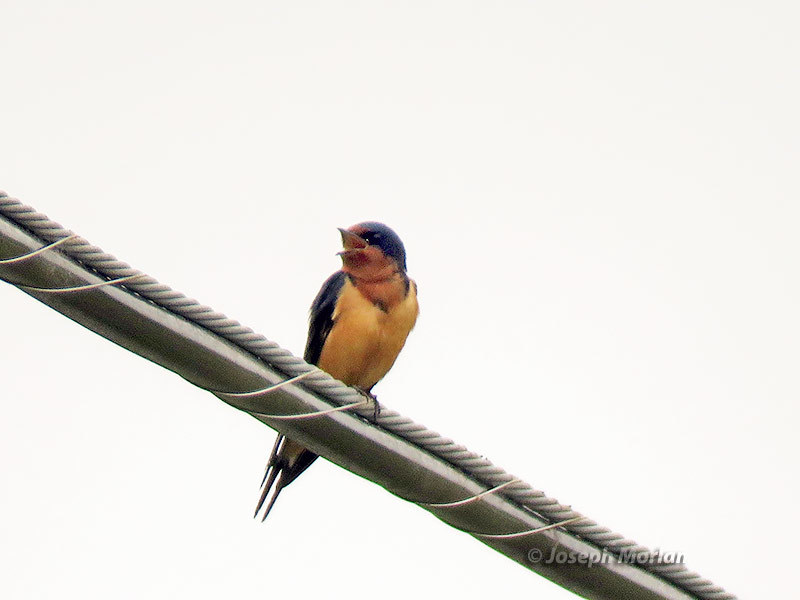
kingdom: Animalia
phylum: Chordata
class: Aves
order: Passeriformes
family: Hirundinidae
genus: Hirundo
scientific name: Hirundo rustica
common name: Barn swallow
